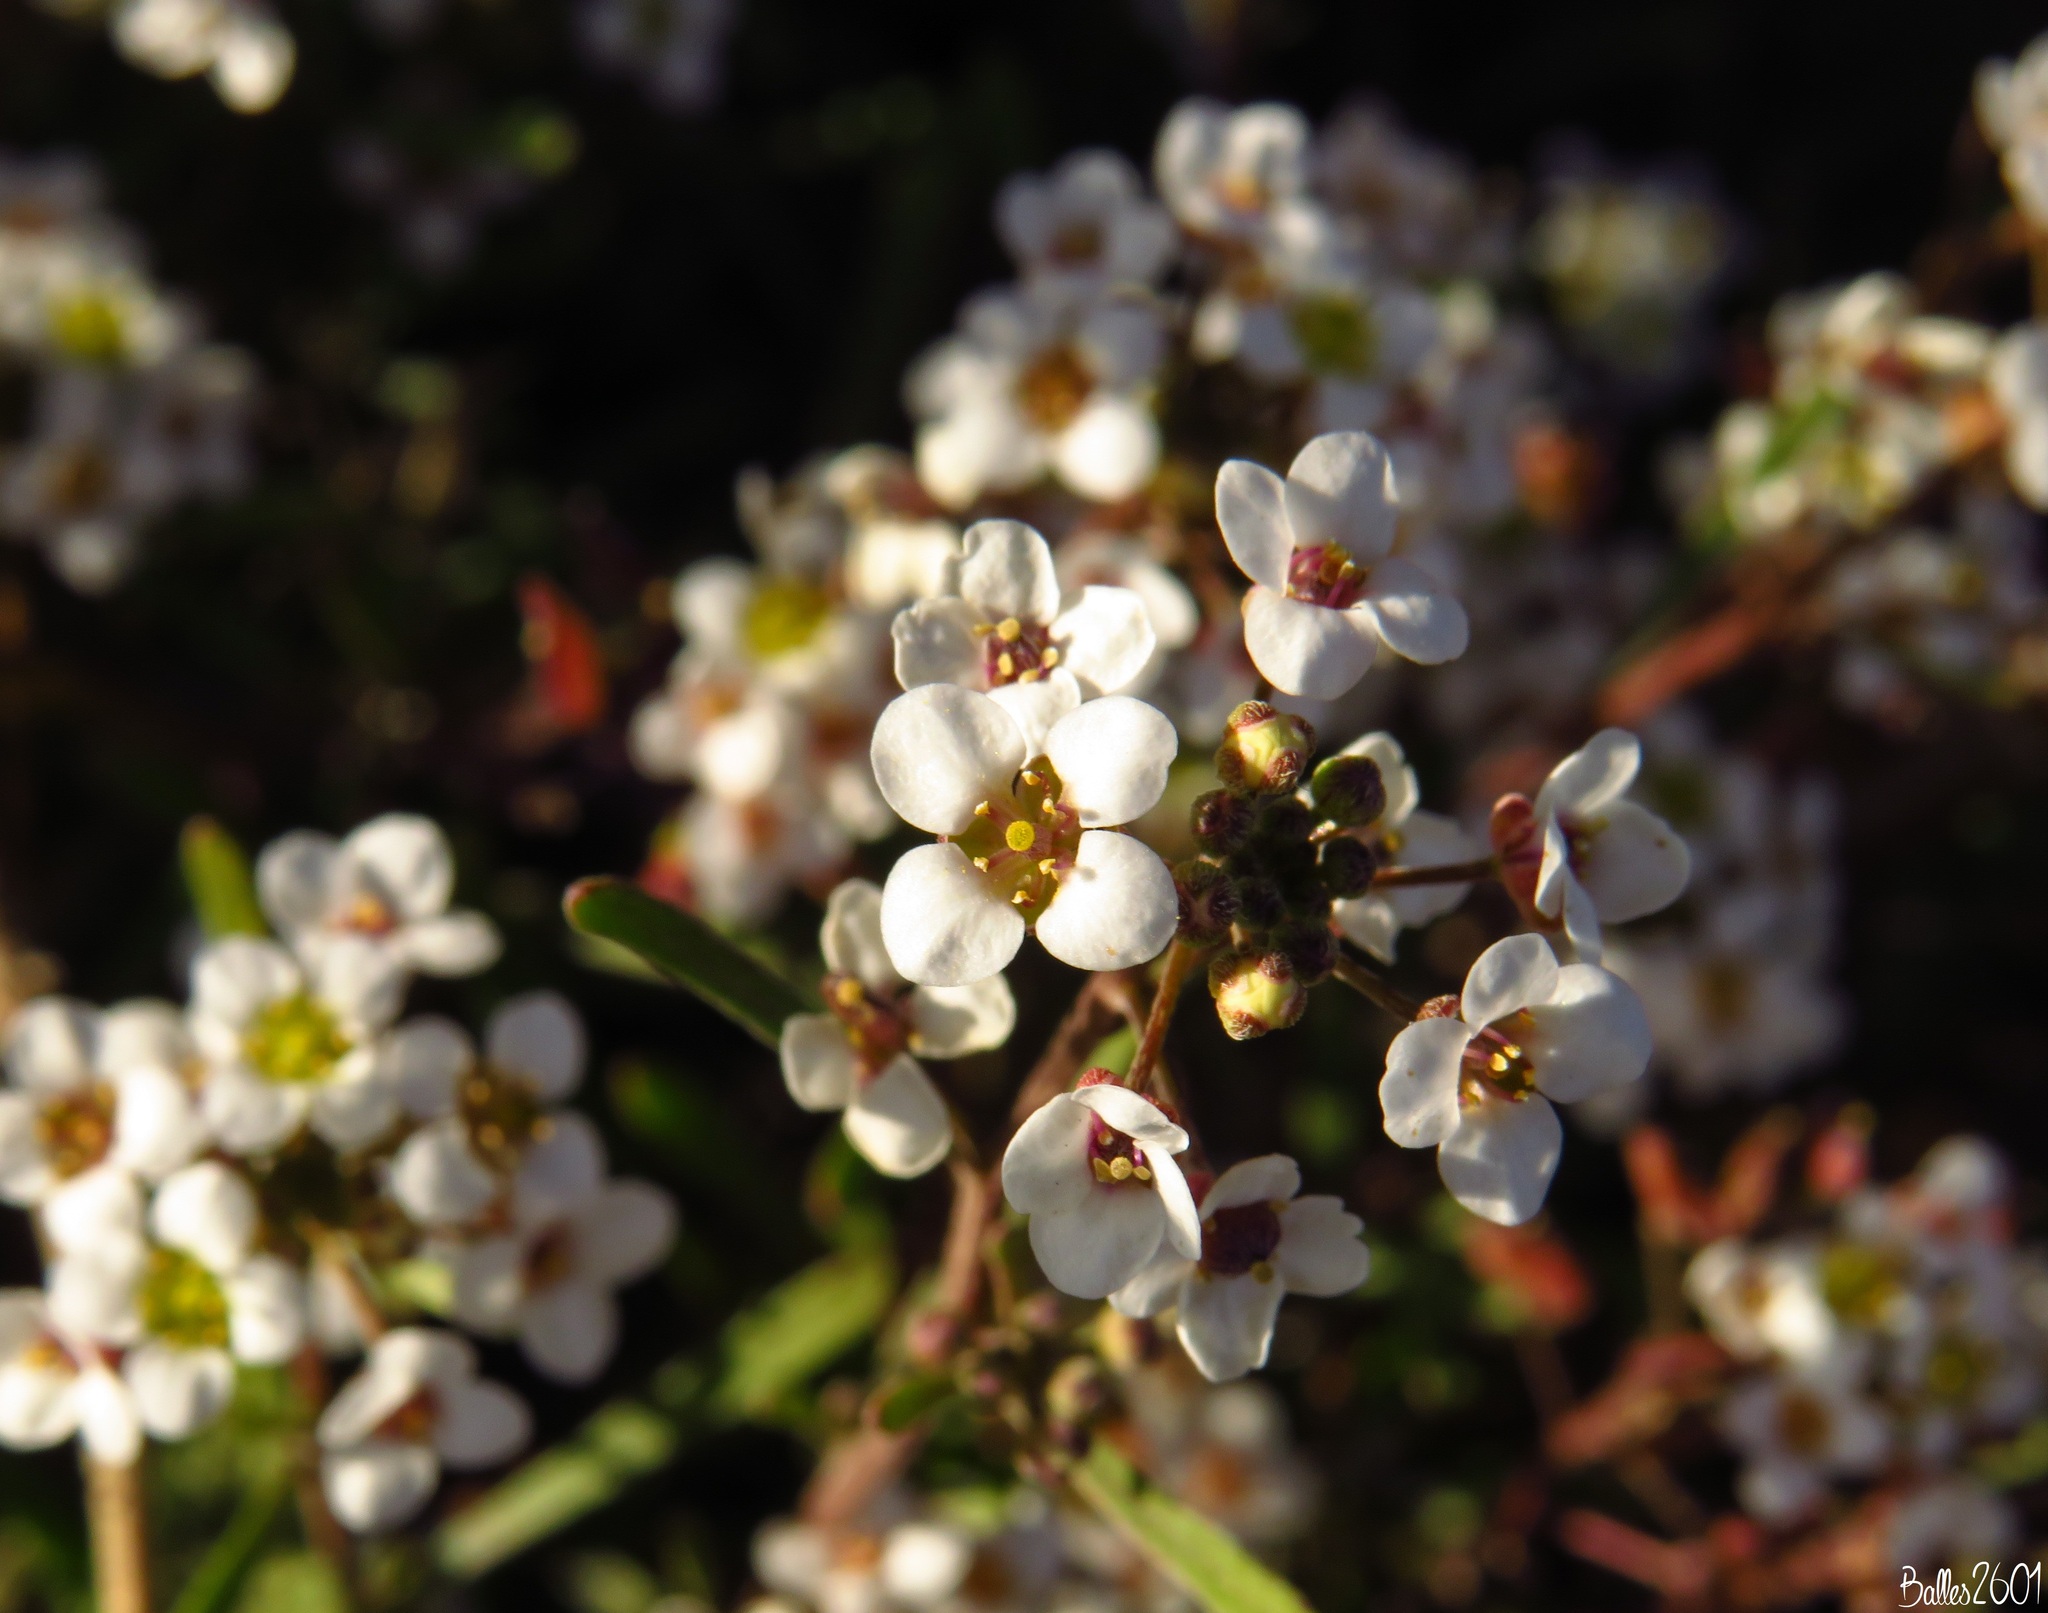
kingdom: Plantae
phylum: Tracheophyta
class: Magnoliopsida
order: Brassicales
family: Brassicaceae
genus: Lobularia
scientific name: Lobularia canariensis
